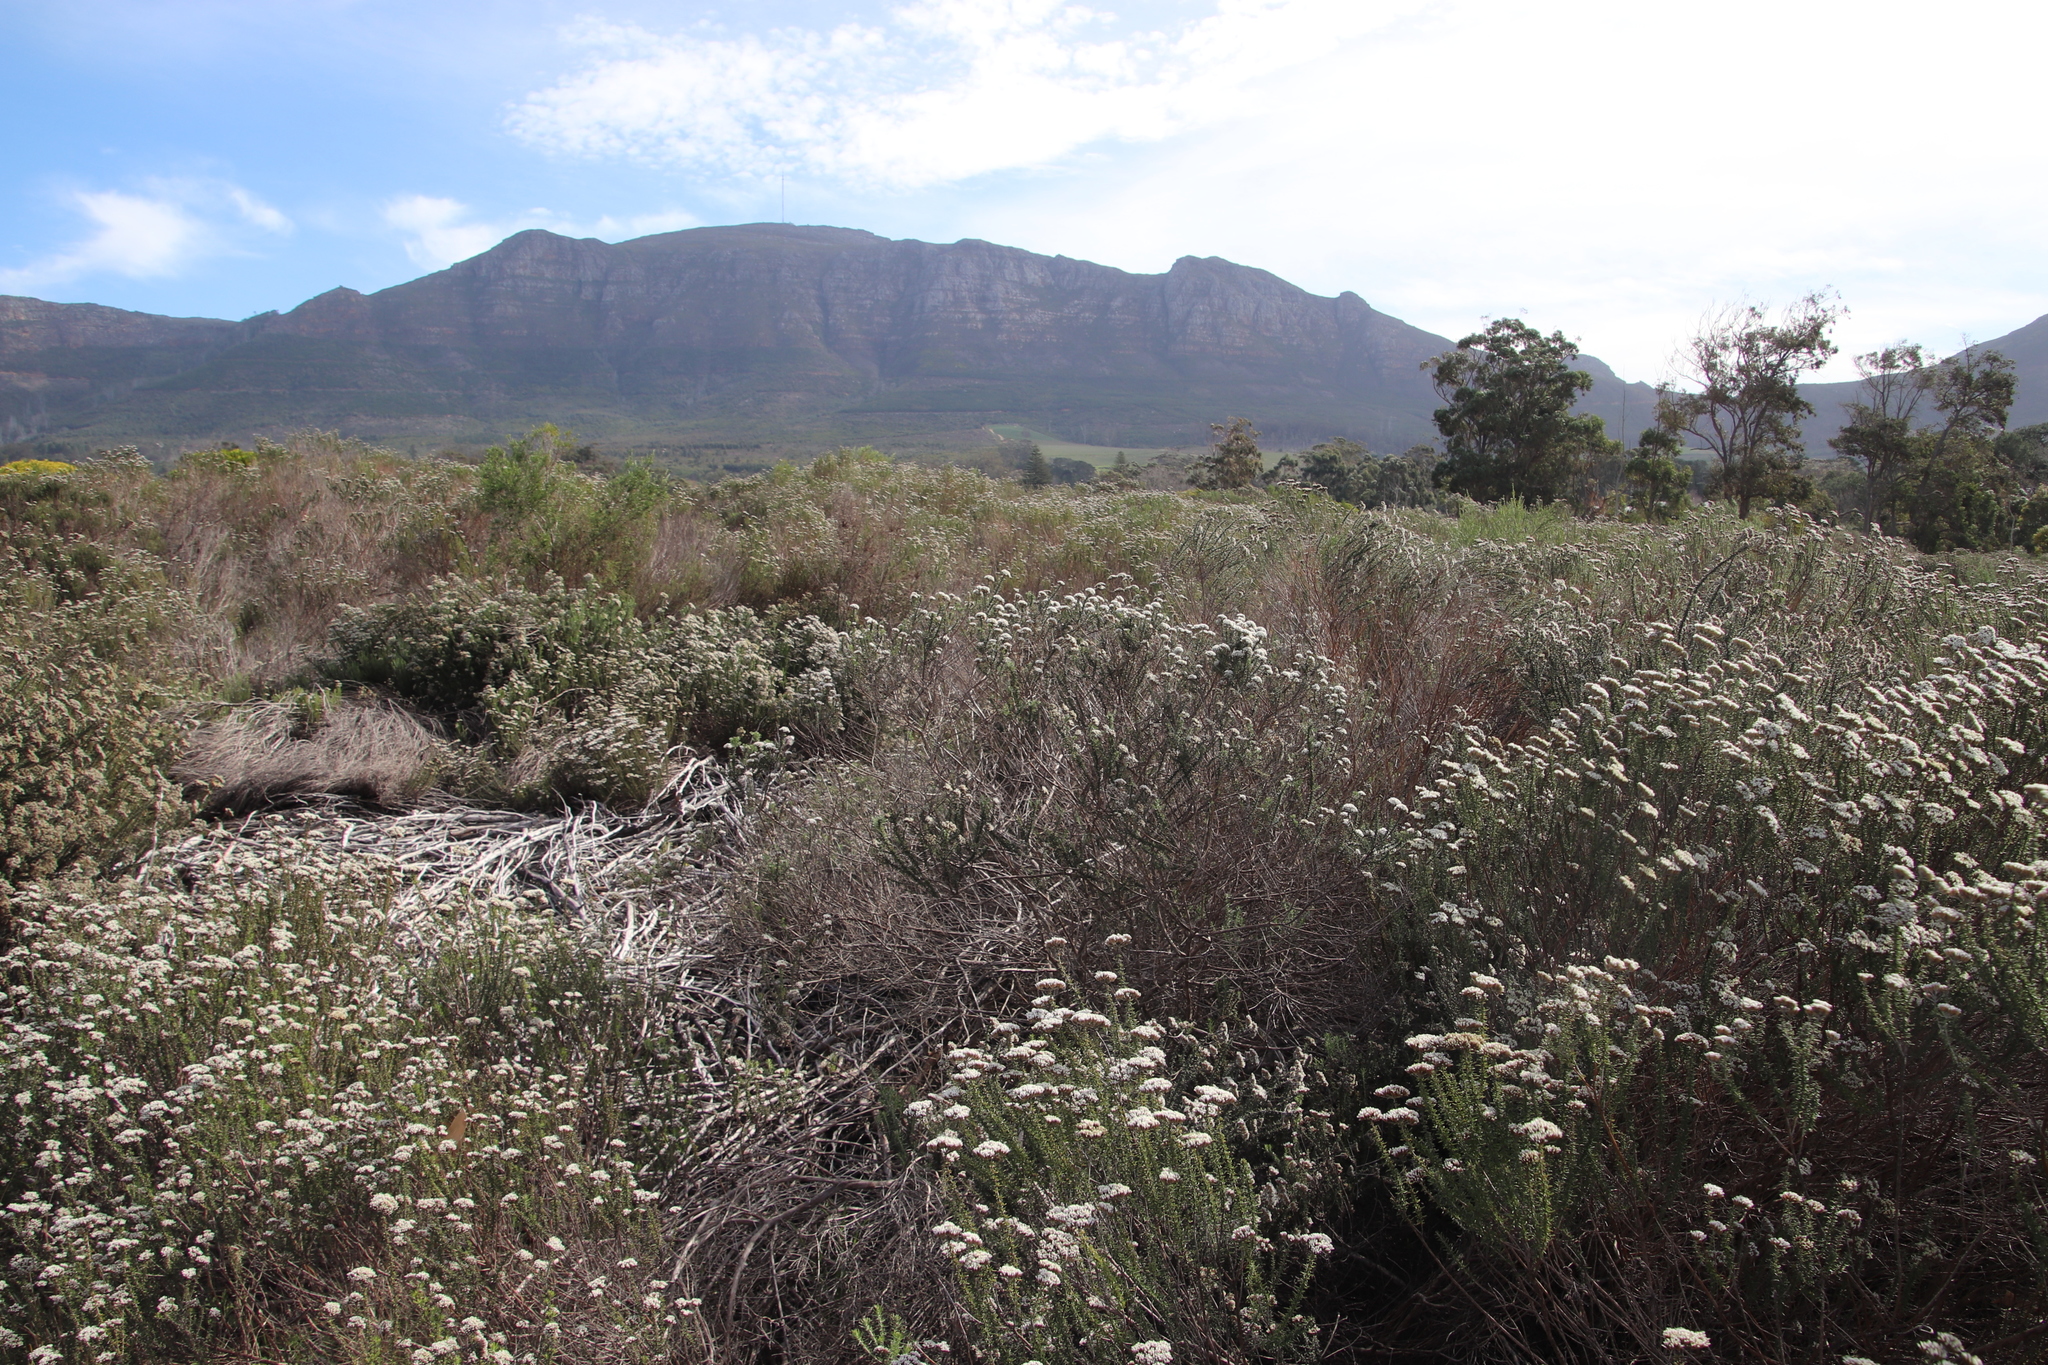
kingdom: Plantae
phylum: Tracheophyta
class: Magnoliopsida
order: Asterales
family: Asteraceae
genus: Metalasia
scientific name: Metalasia densa
